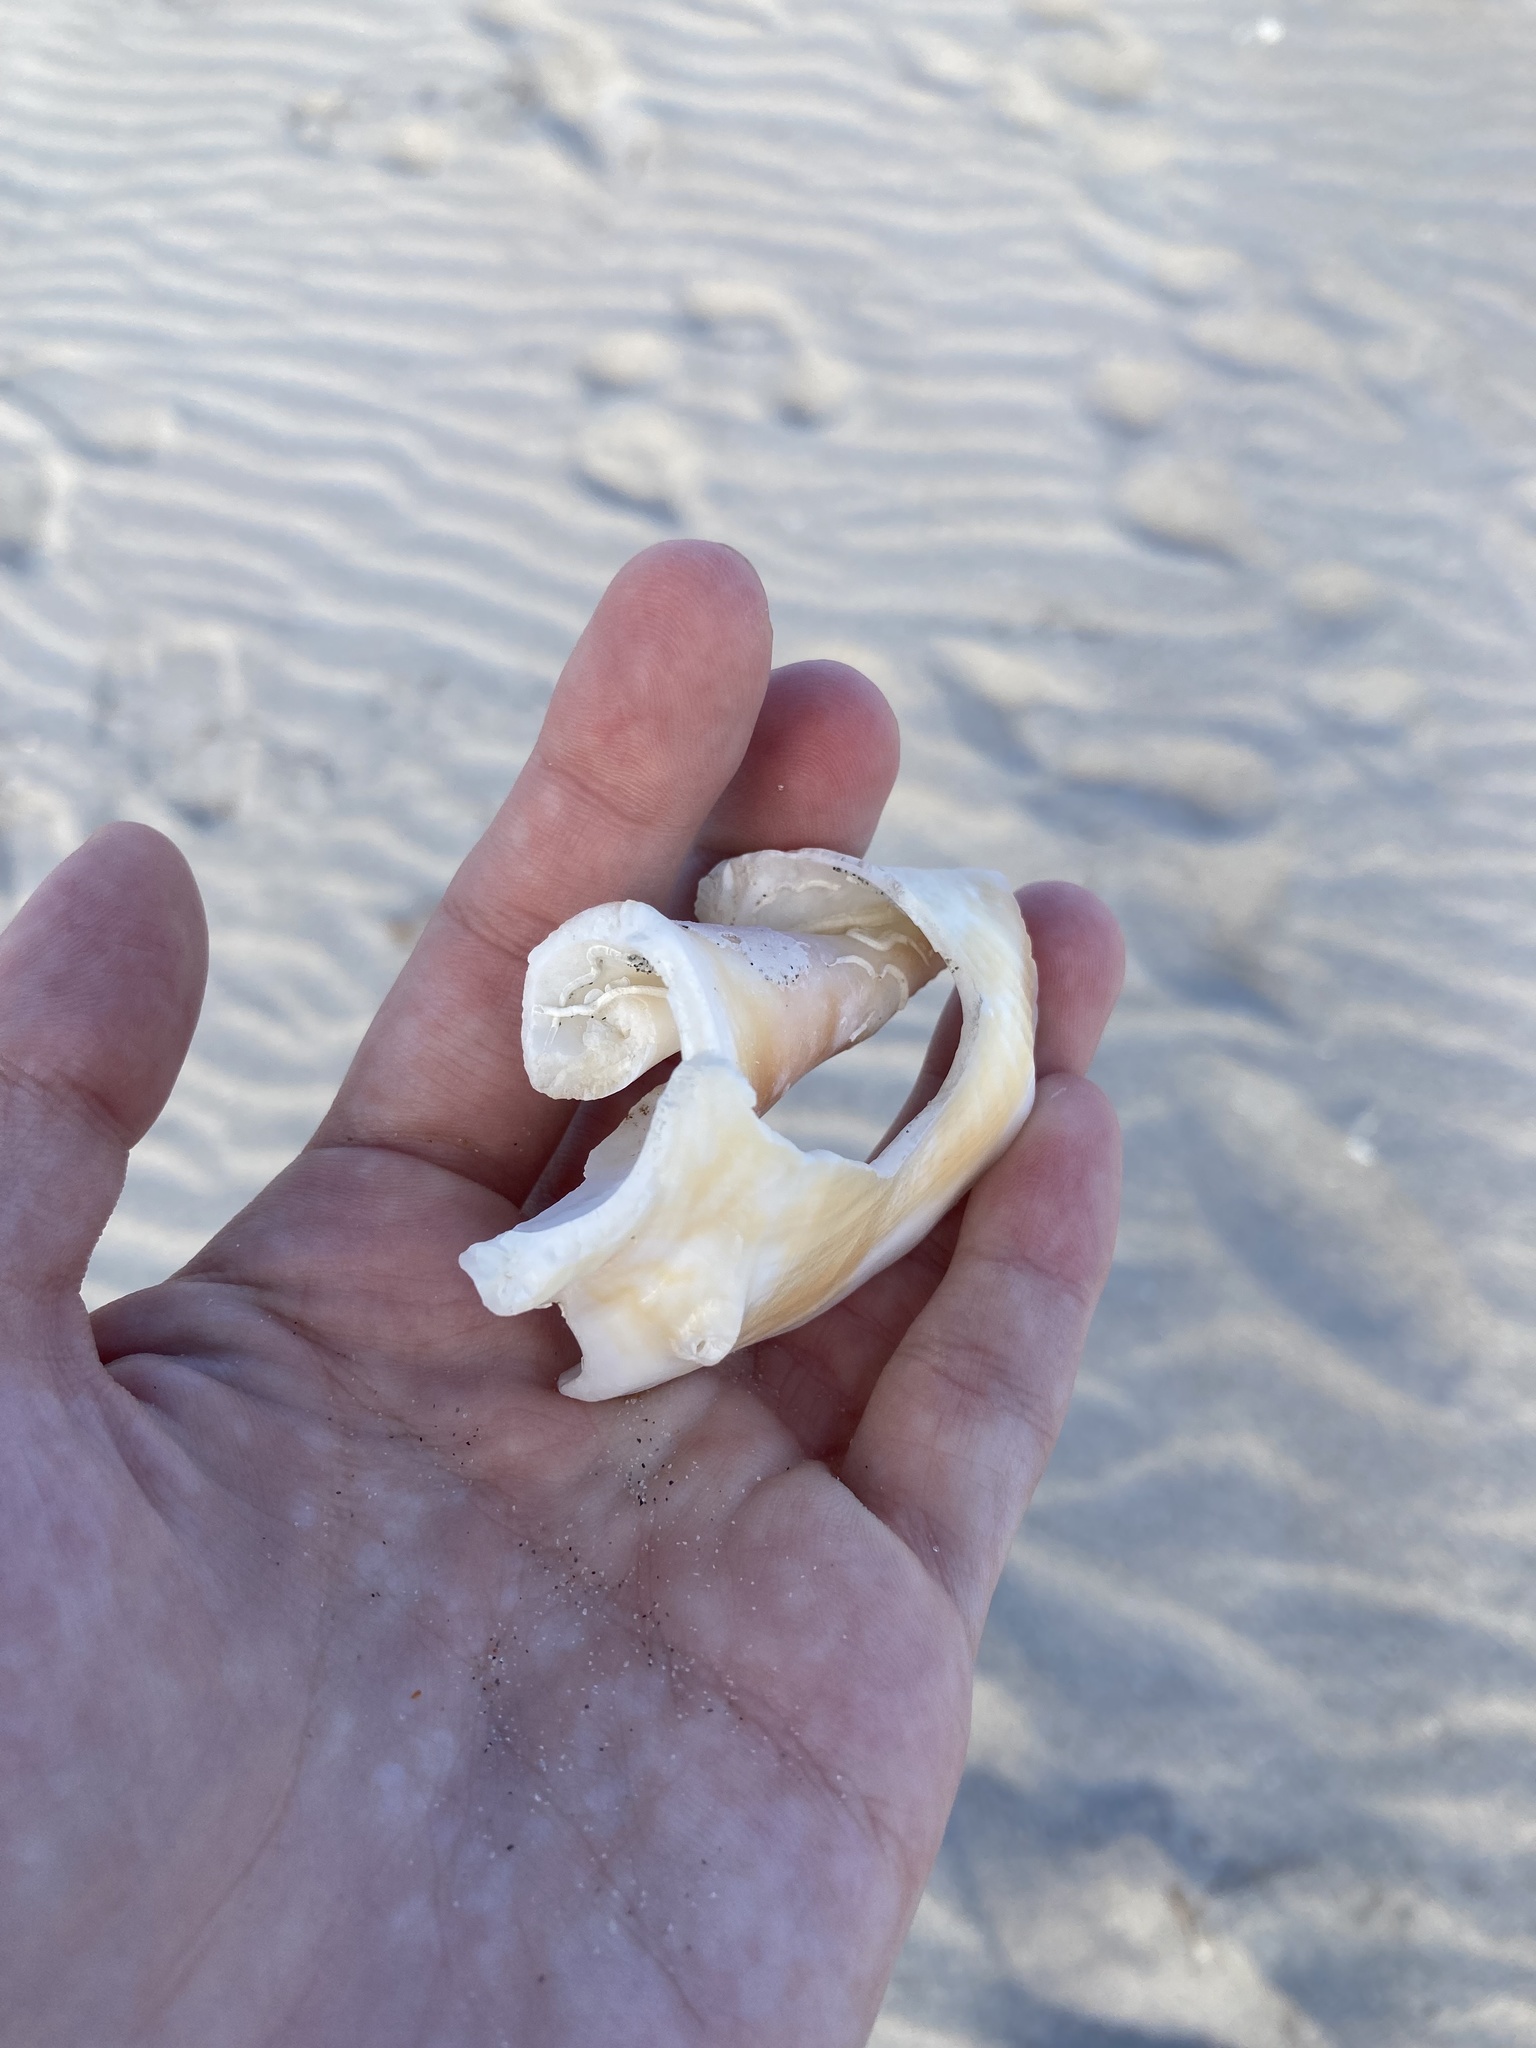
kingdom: Animalia
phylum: Mollusca
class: Gastropoda
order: Littorinimorpha
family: Strombidae
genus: Strombus
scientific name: Strombus alatus
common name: Florida fighting conch
